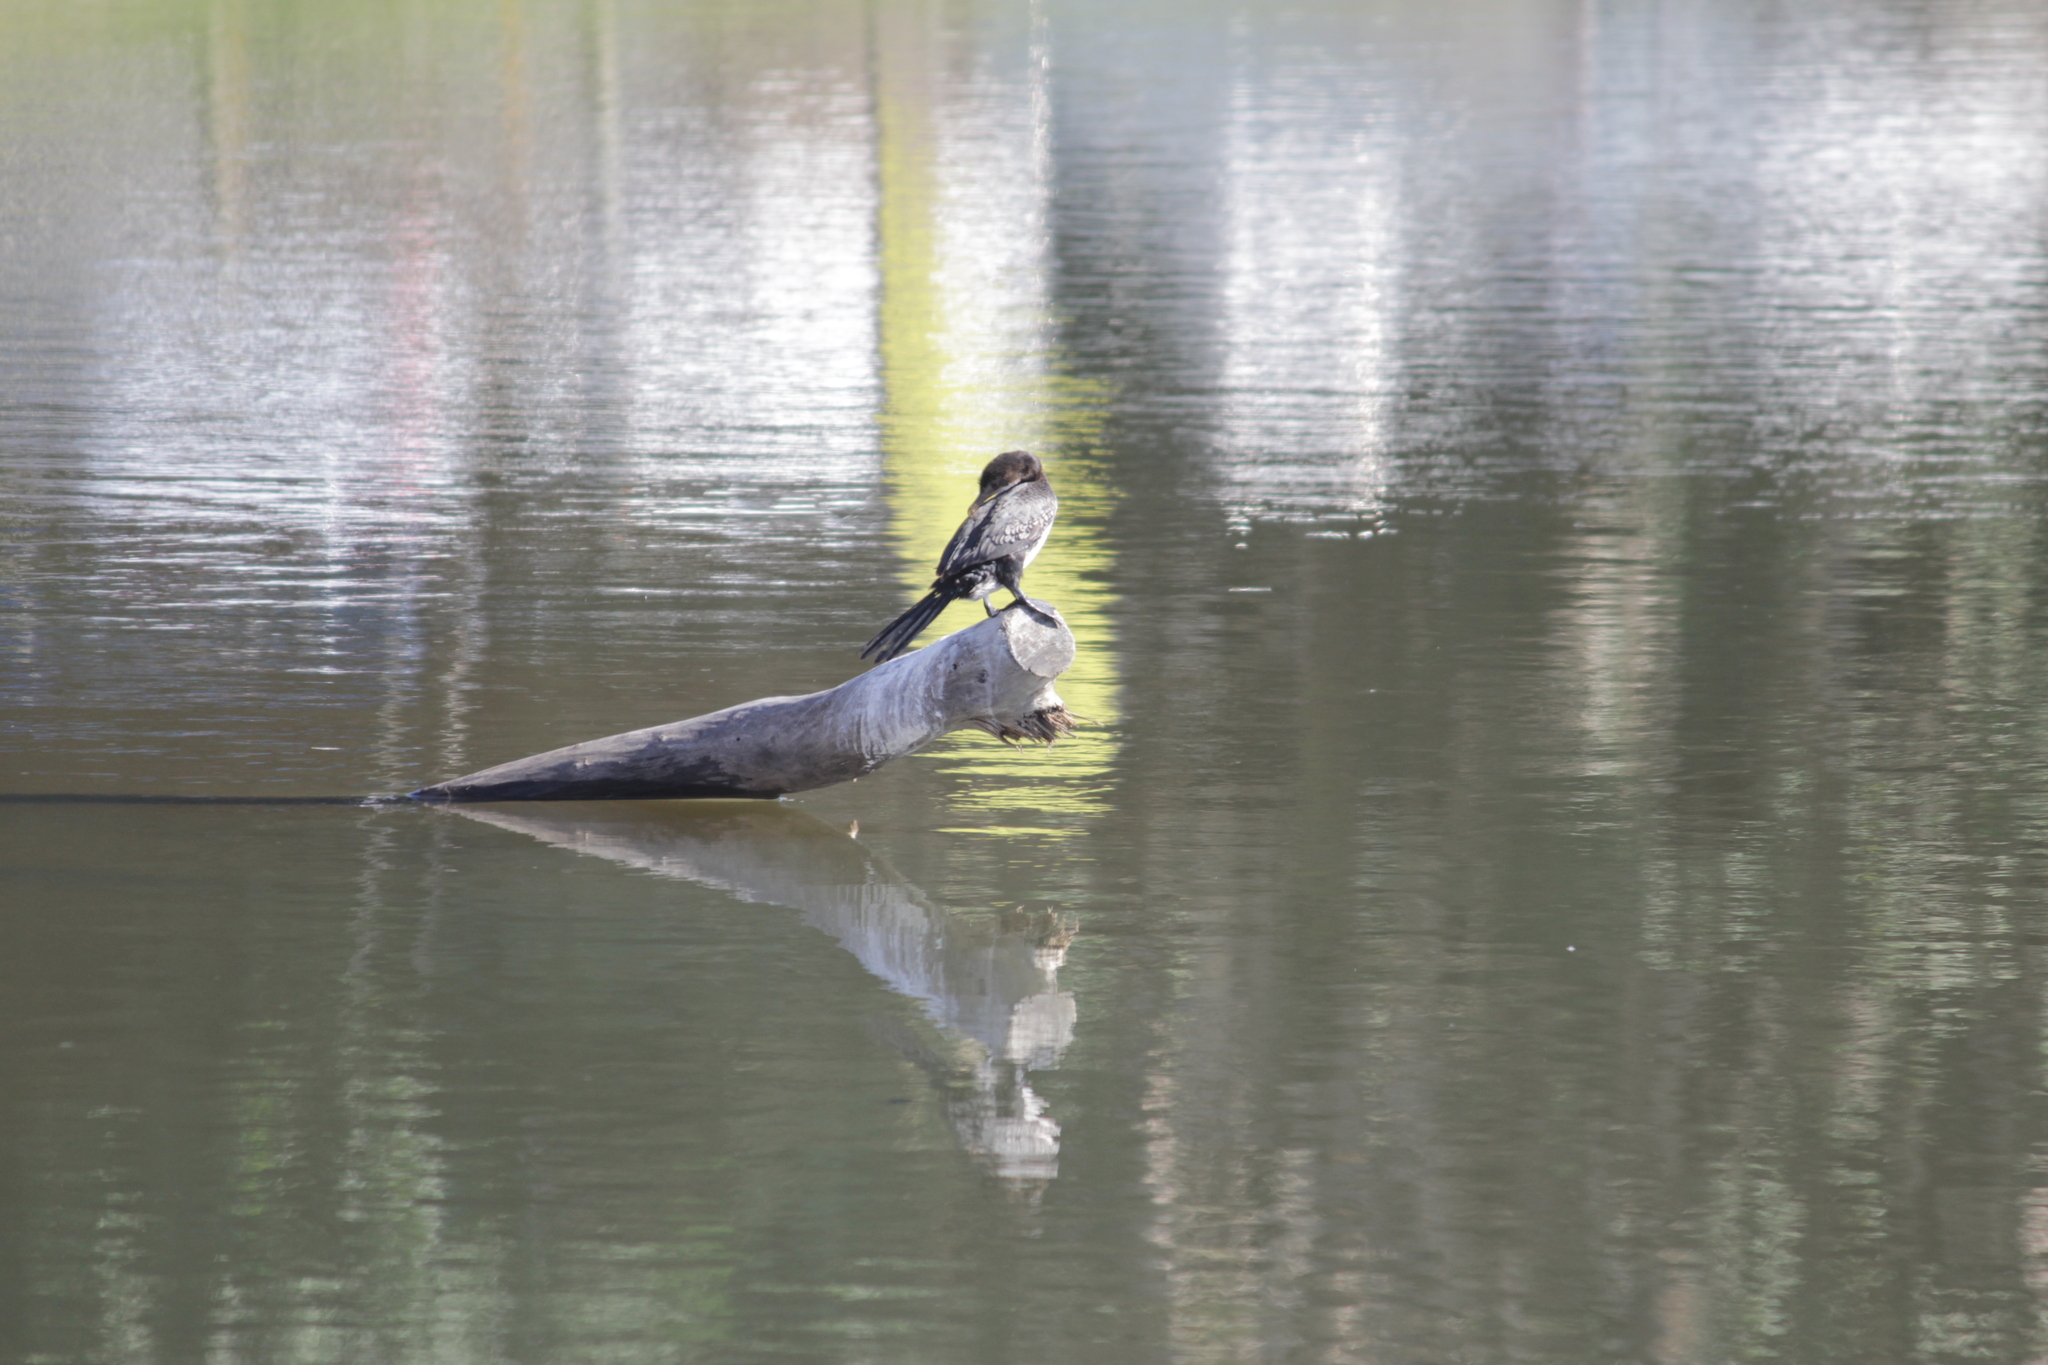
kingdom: Animalia
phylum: Chordata
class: Aves
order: Suliformes
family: Phalacrocoracidae
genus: Microcarbo
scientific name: Microcarbo africanus
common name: Long-tailed cormorant
